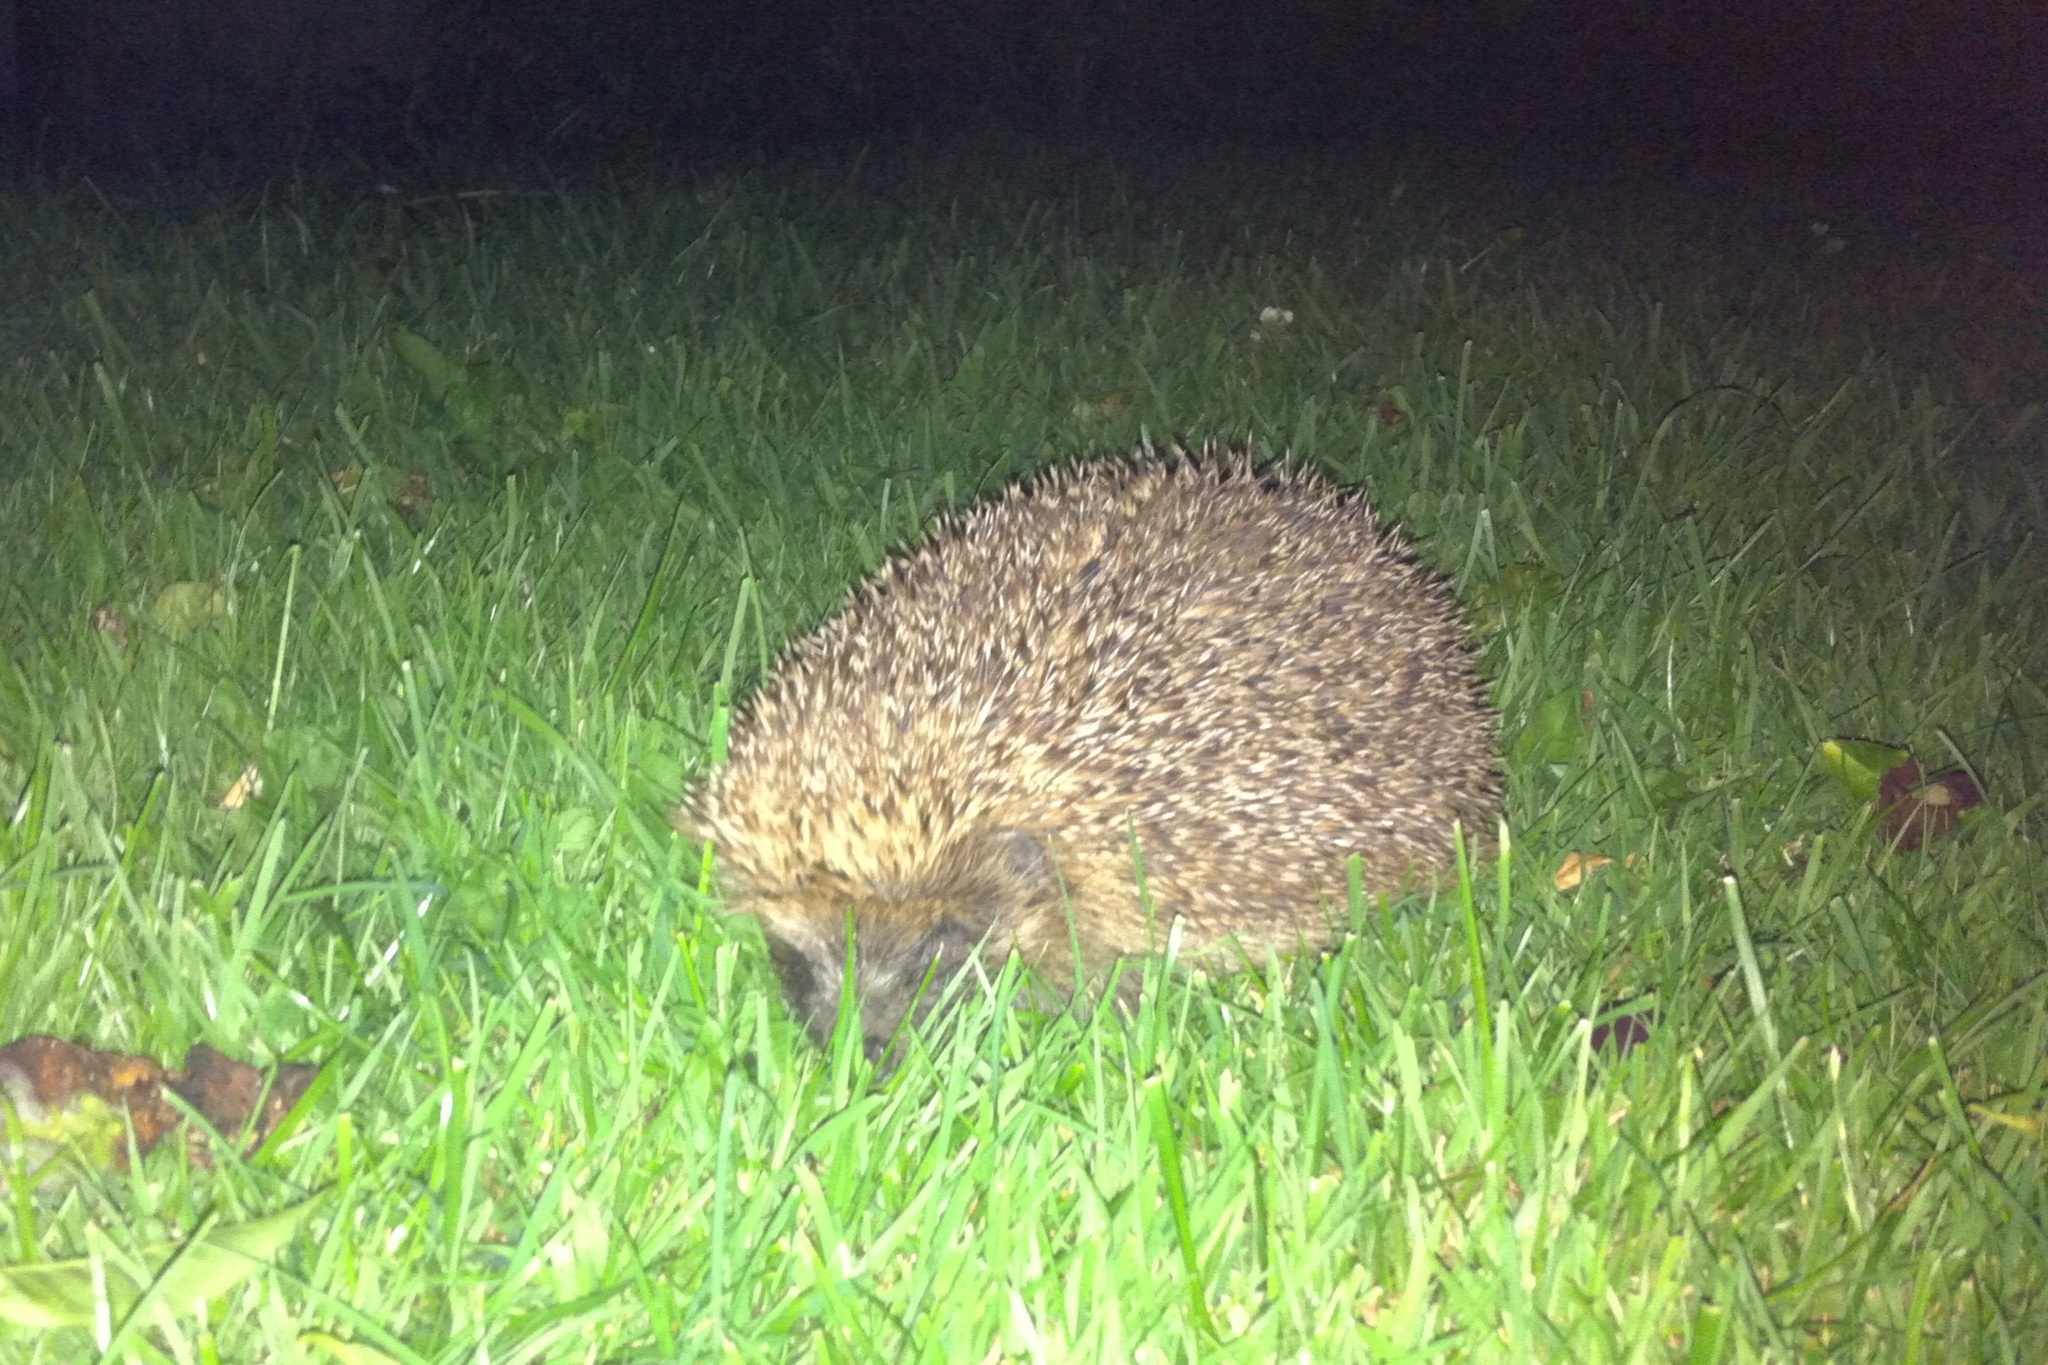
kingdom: Animalia
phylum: Chordata
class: Mammalia
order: Erinaceomorpha
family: Erinaceidae
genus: Erinaceus
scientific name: Erinaceus europaeus
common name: West european hedgehog
